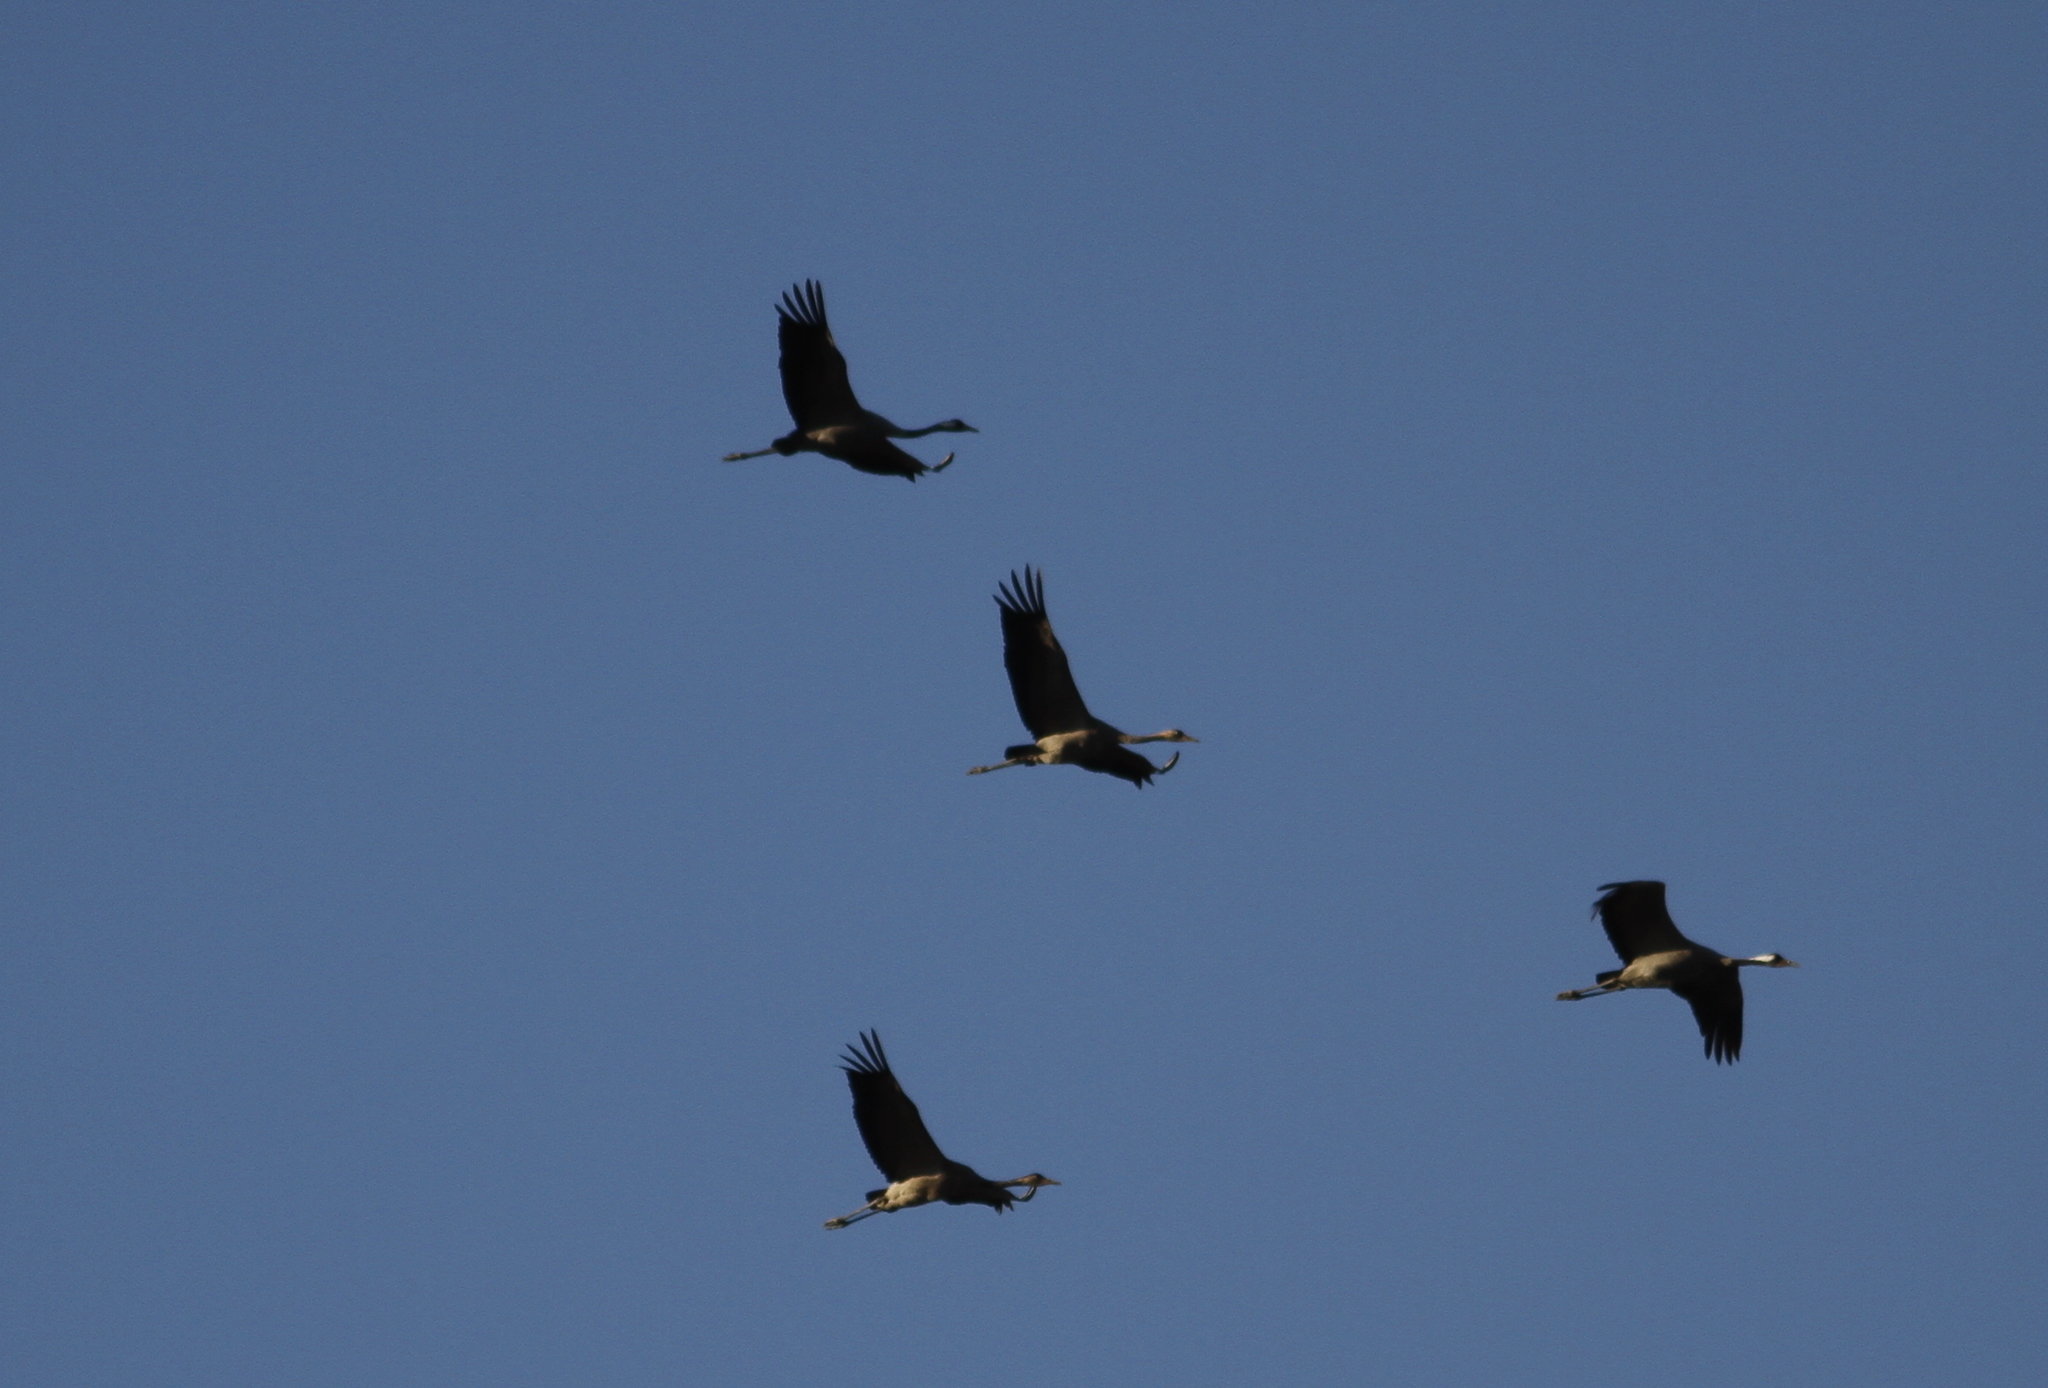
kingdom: Animalia
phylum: Chordata
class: Aves
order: Gruiformes
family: Gruidae
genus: Grus
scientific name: Grus grus
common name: Common crane
